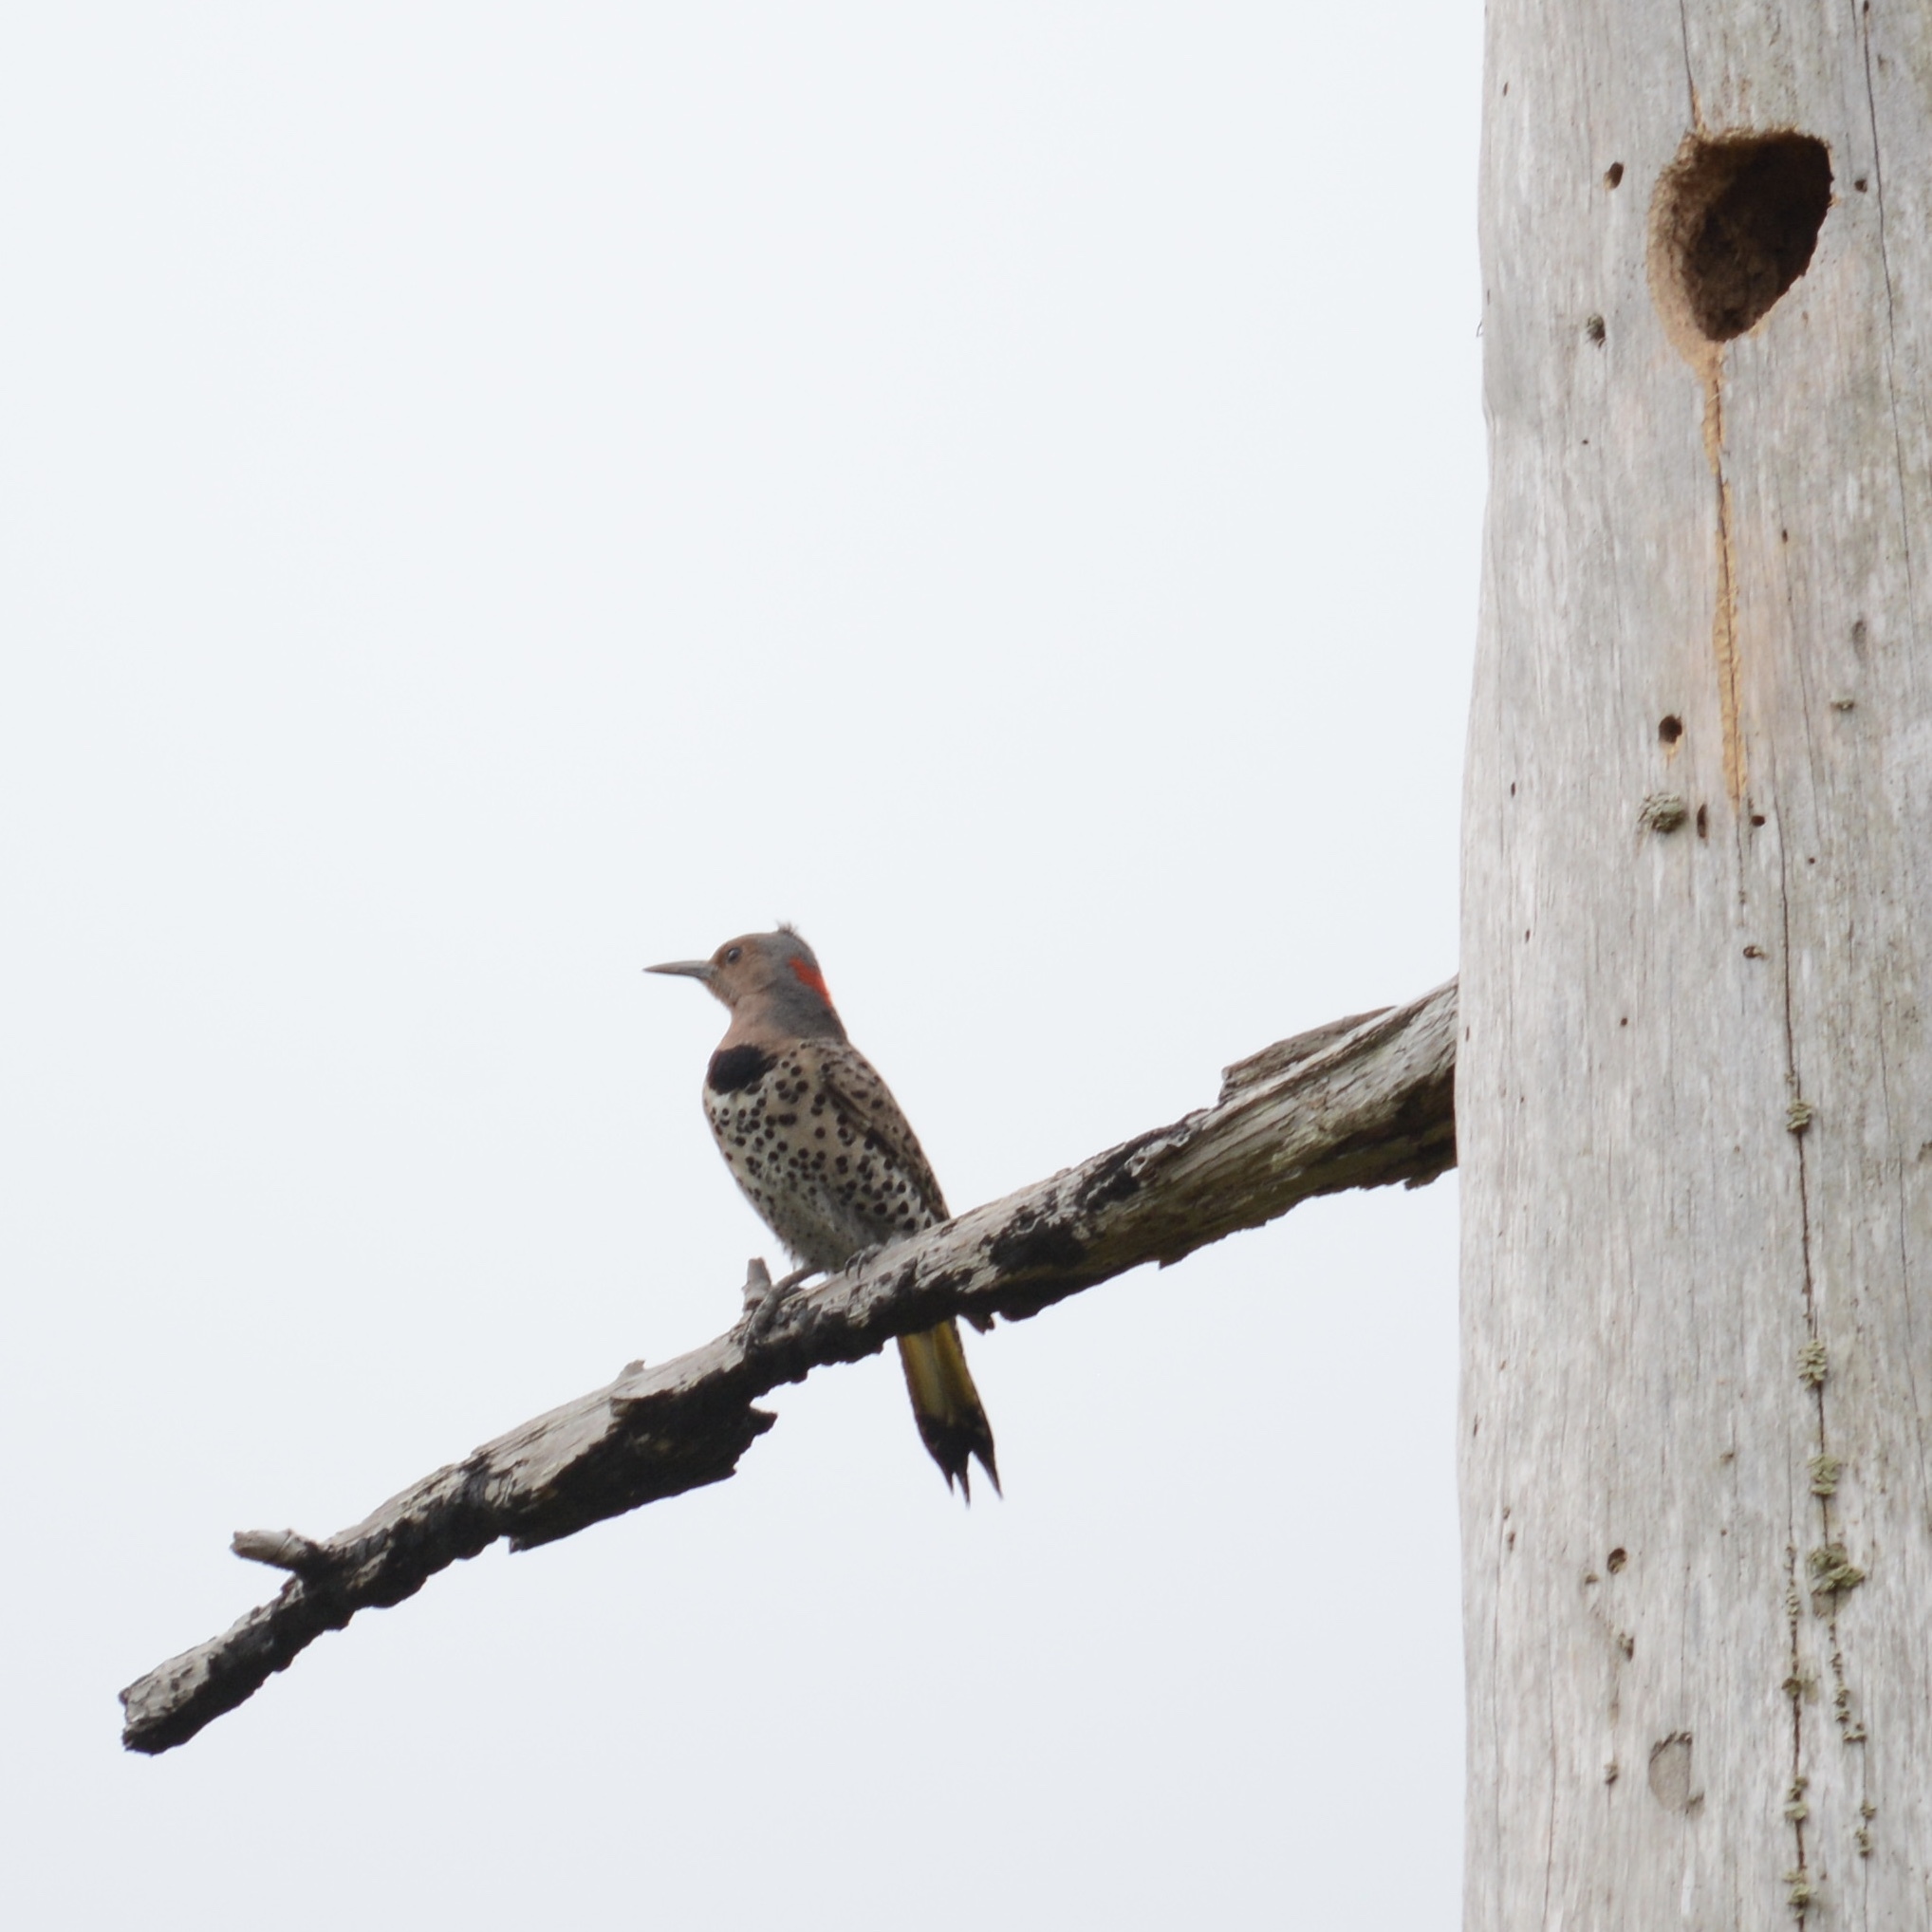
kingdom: Animalia
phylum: Chordata
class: Aves
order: Piciformes
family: Picidae
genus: Colaptes
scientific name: Colaptes auratus
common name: Northern flicker
